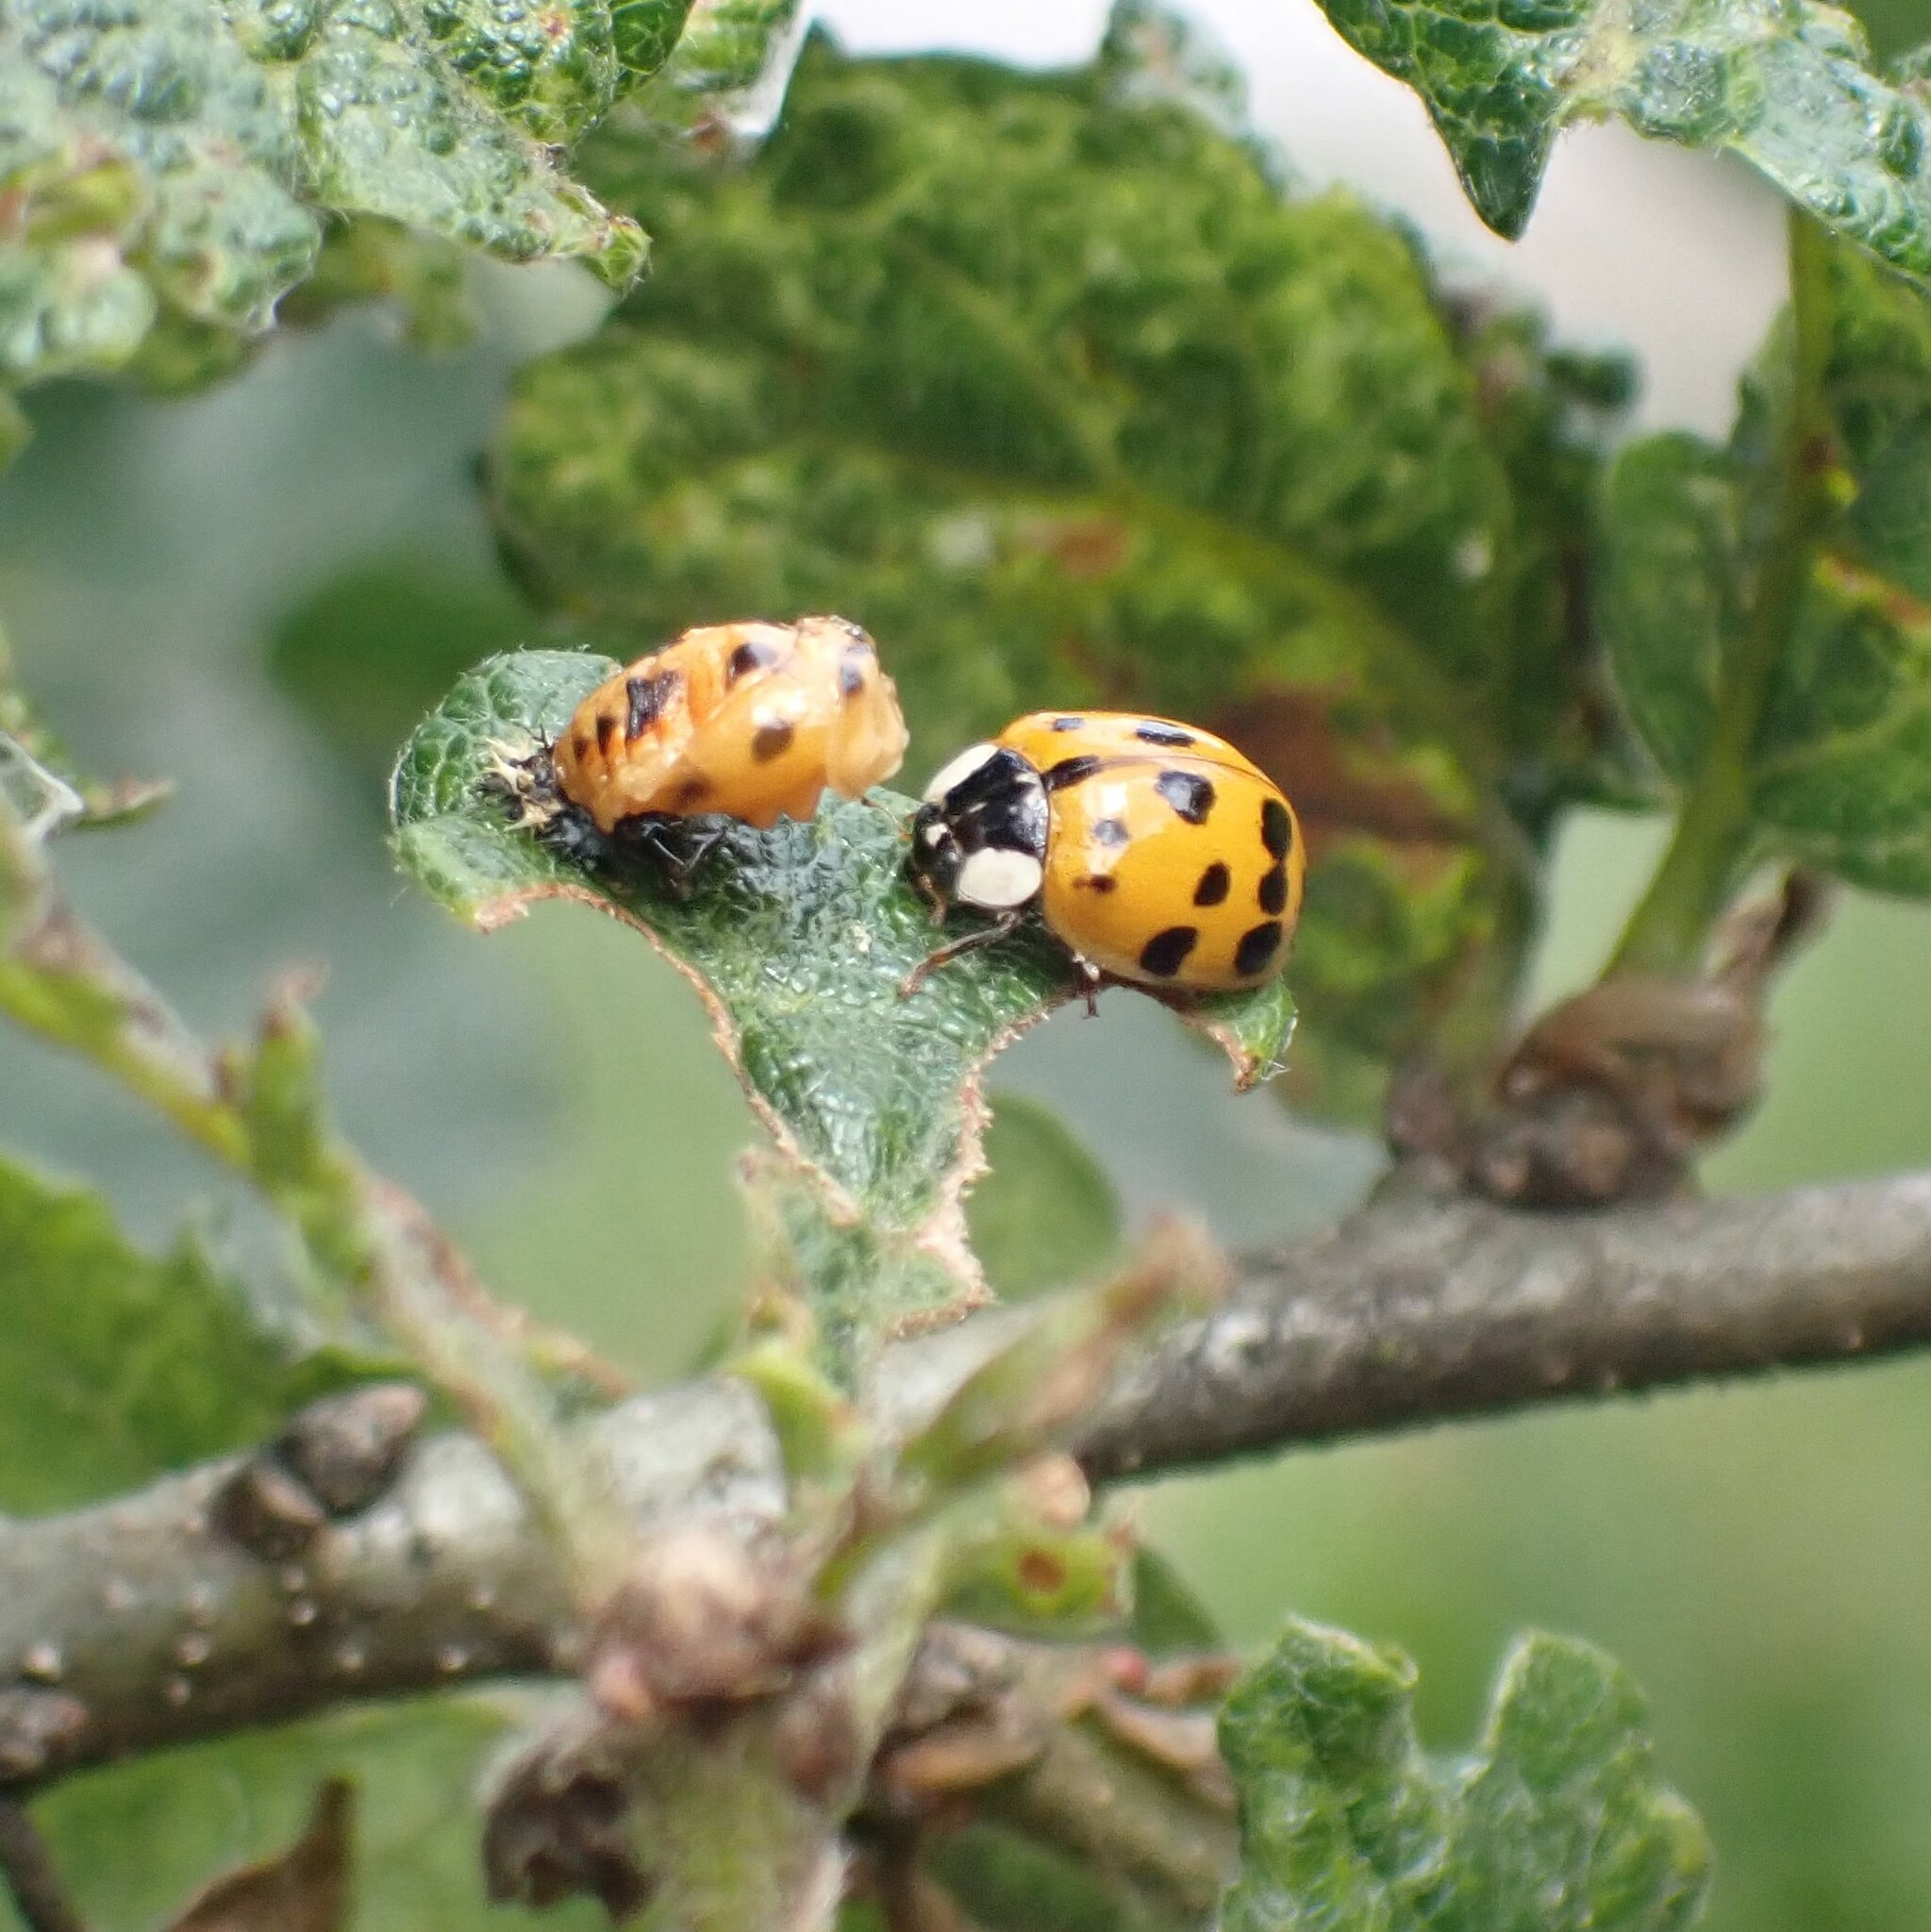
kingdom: Animalia
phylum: Arthropoda
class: Insecta
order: Coleoptera
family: Coccinellidae
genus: Harmonia
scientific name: Harmonia axyridis
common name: Harlequin ladybird
